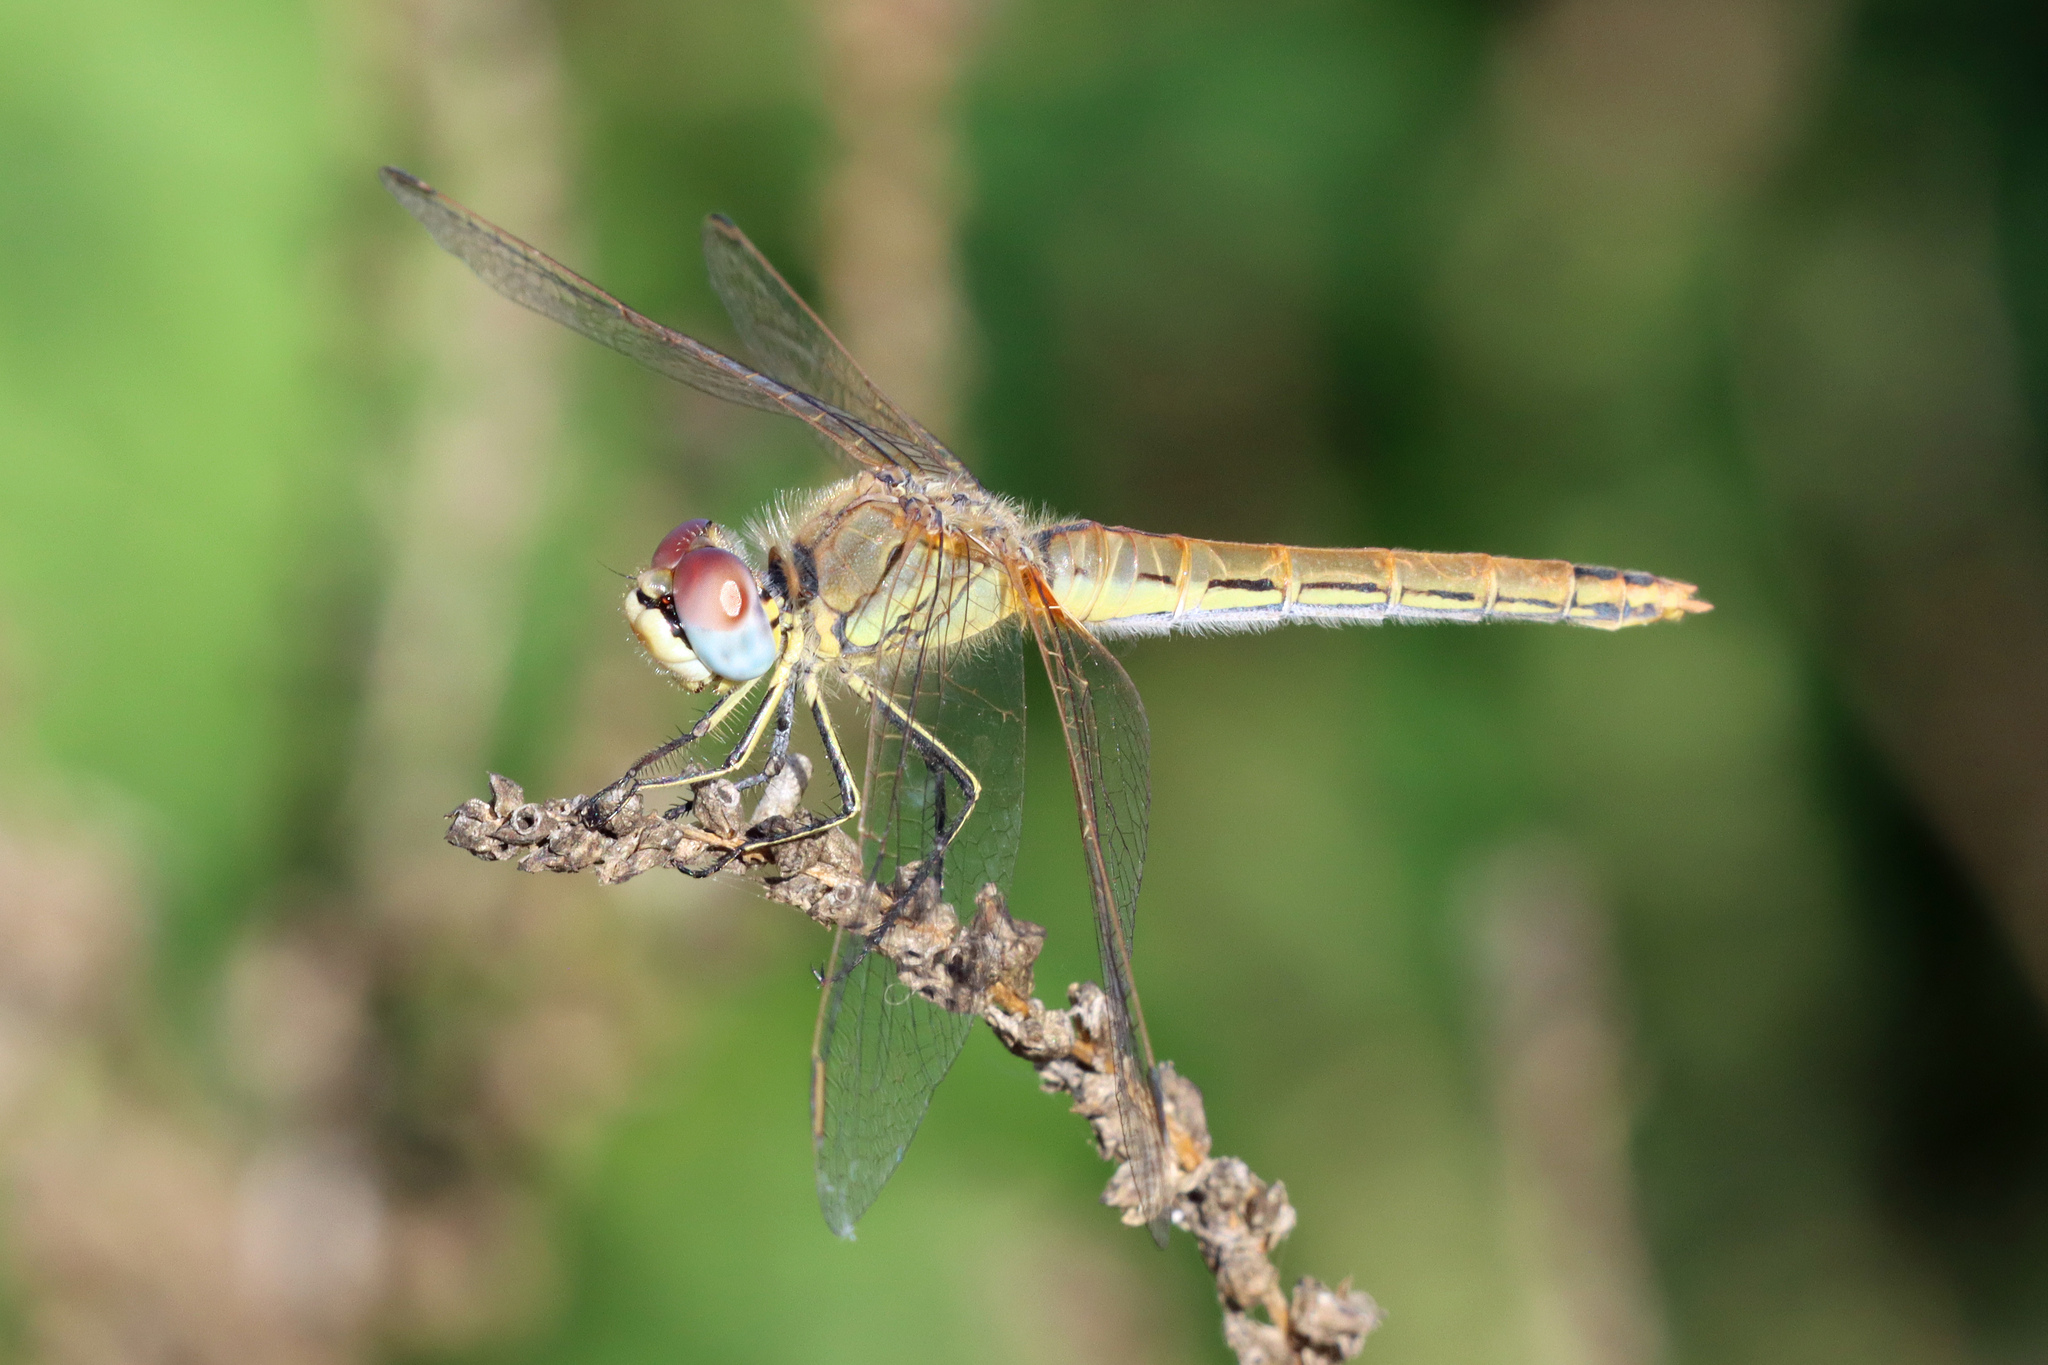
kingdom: Animalia
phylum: Arthropoda
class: Insecta
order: Odonata
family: Libellulidae
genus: Sympetrum
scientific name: Sympetrum fonscolombii
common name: Red-veined darter
